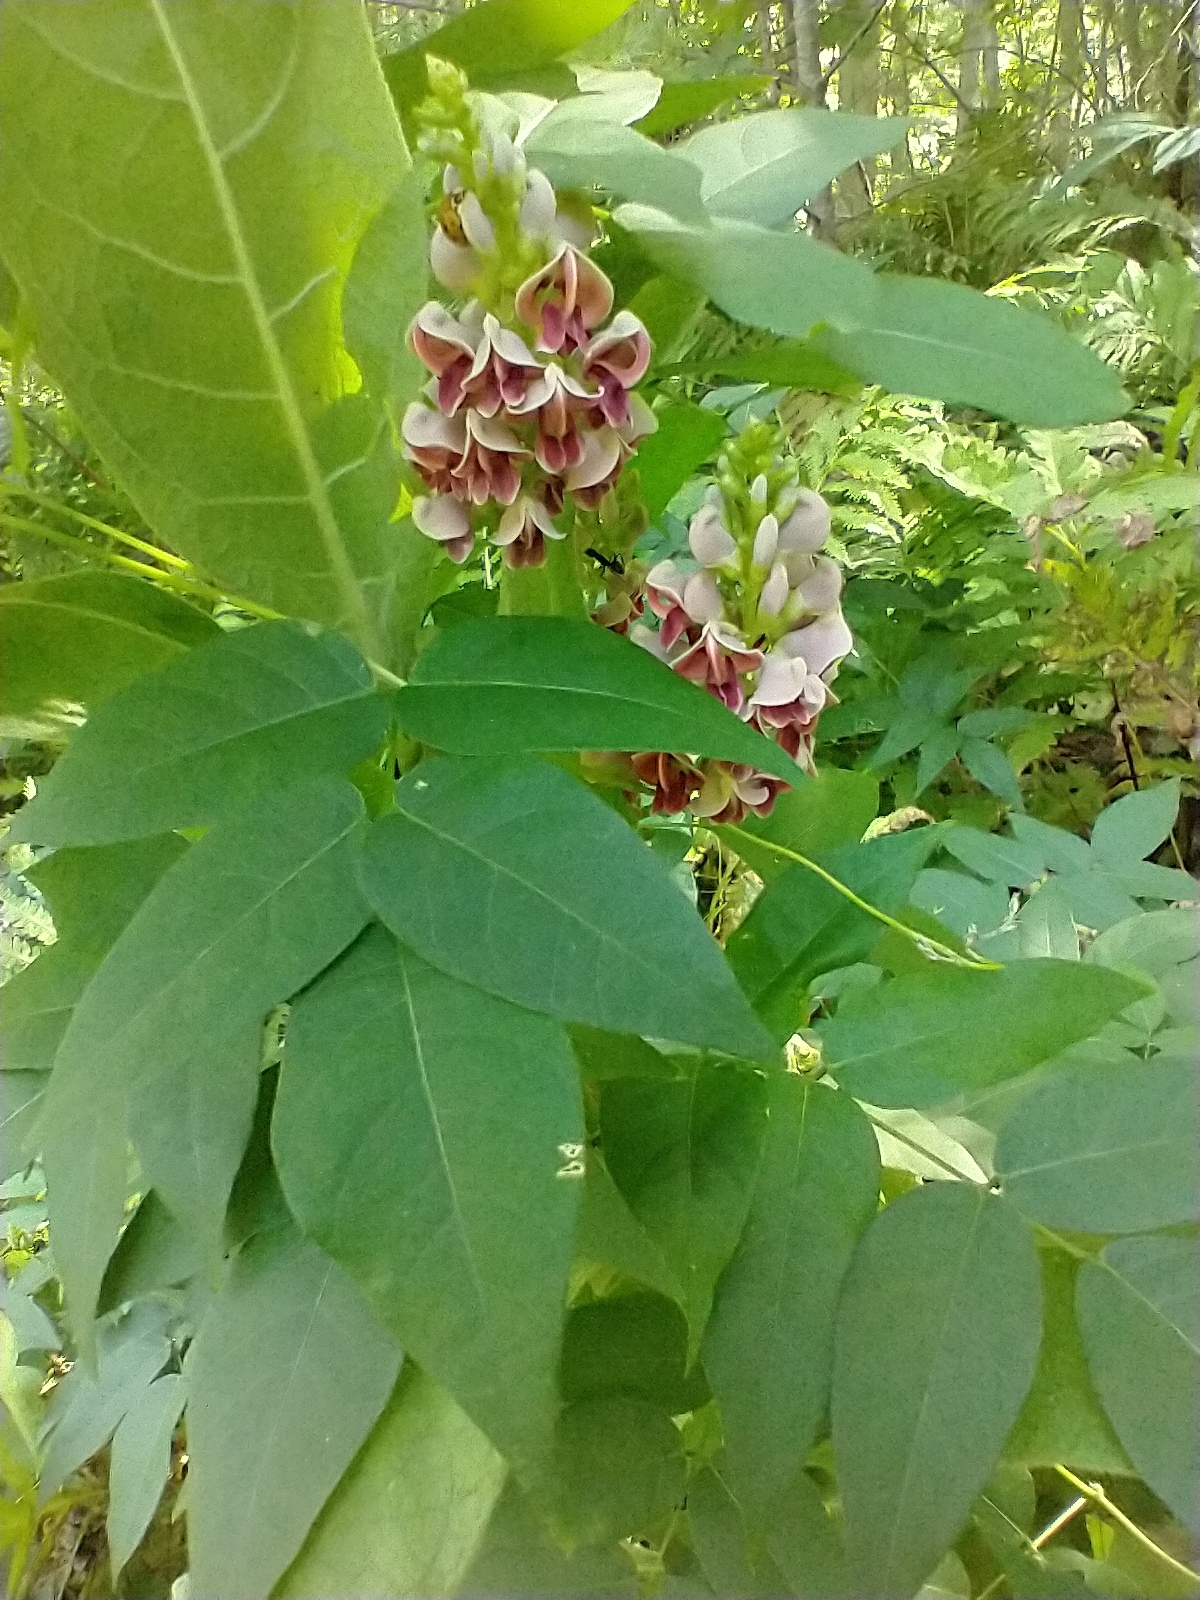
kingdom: Plantae
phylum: Tracheophyta
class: Magnoliopsida
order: Fabales
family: Fabaceae
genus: Apios
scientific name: Apios americana
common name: American potato-bean
